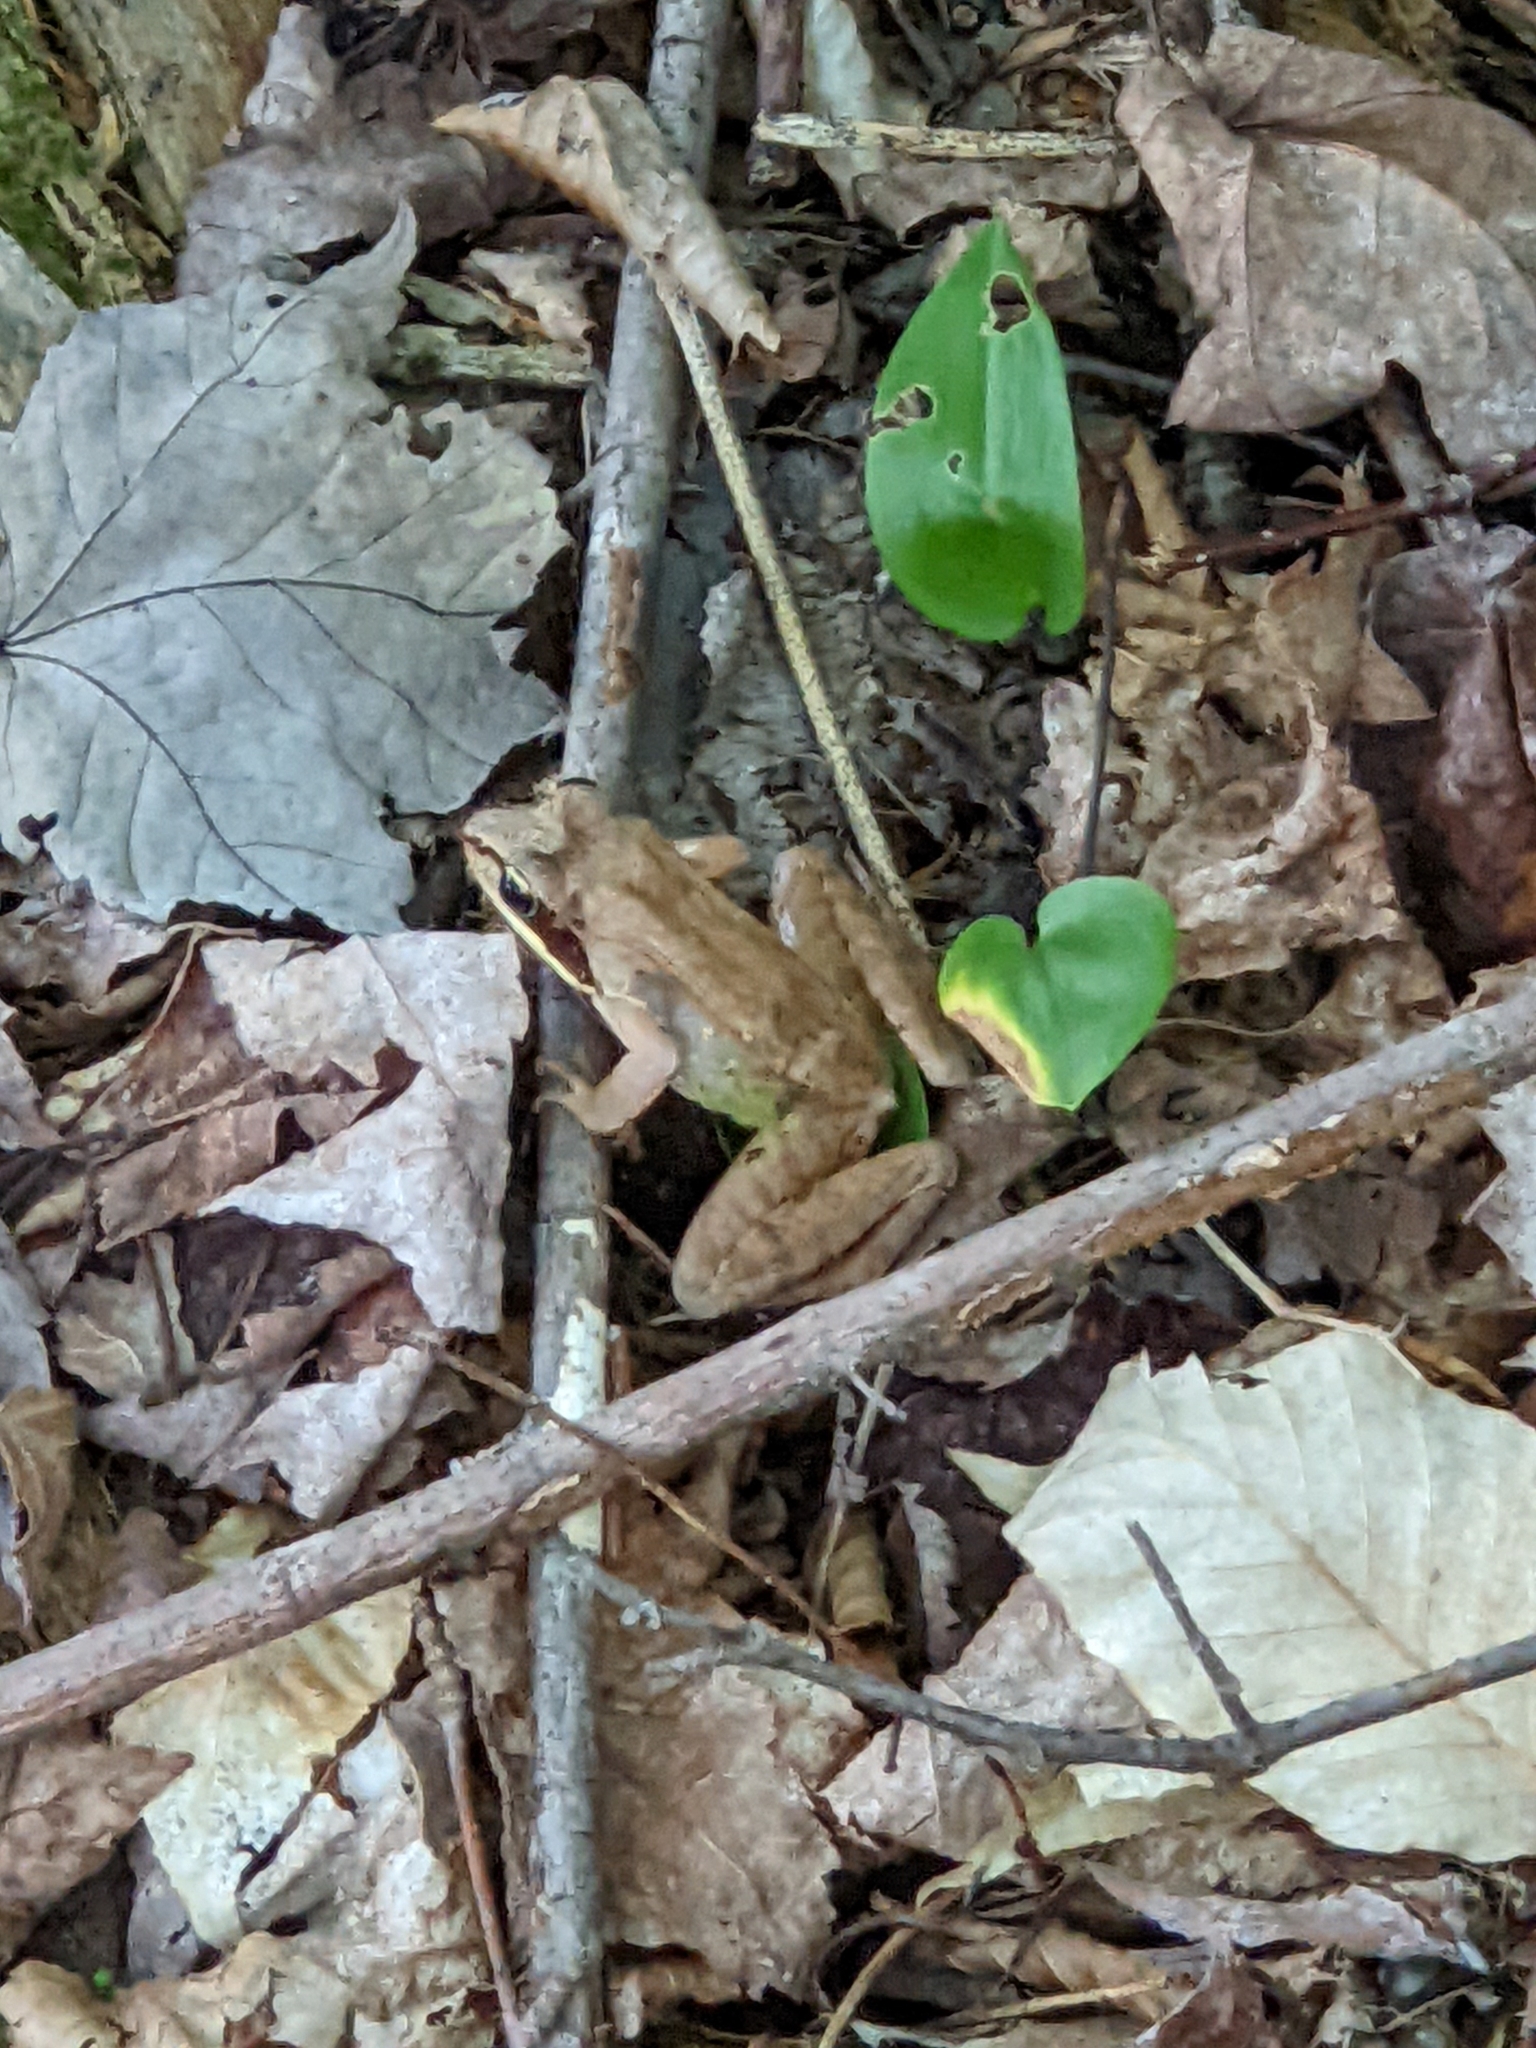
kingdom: Animalia
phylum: Chordata
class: Amphibia
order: Anura
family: Ranidae
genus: Lithobates
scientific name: Lithobates sylvaticus
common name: Wood frog
